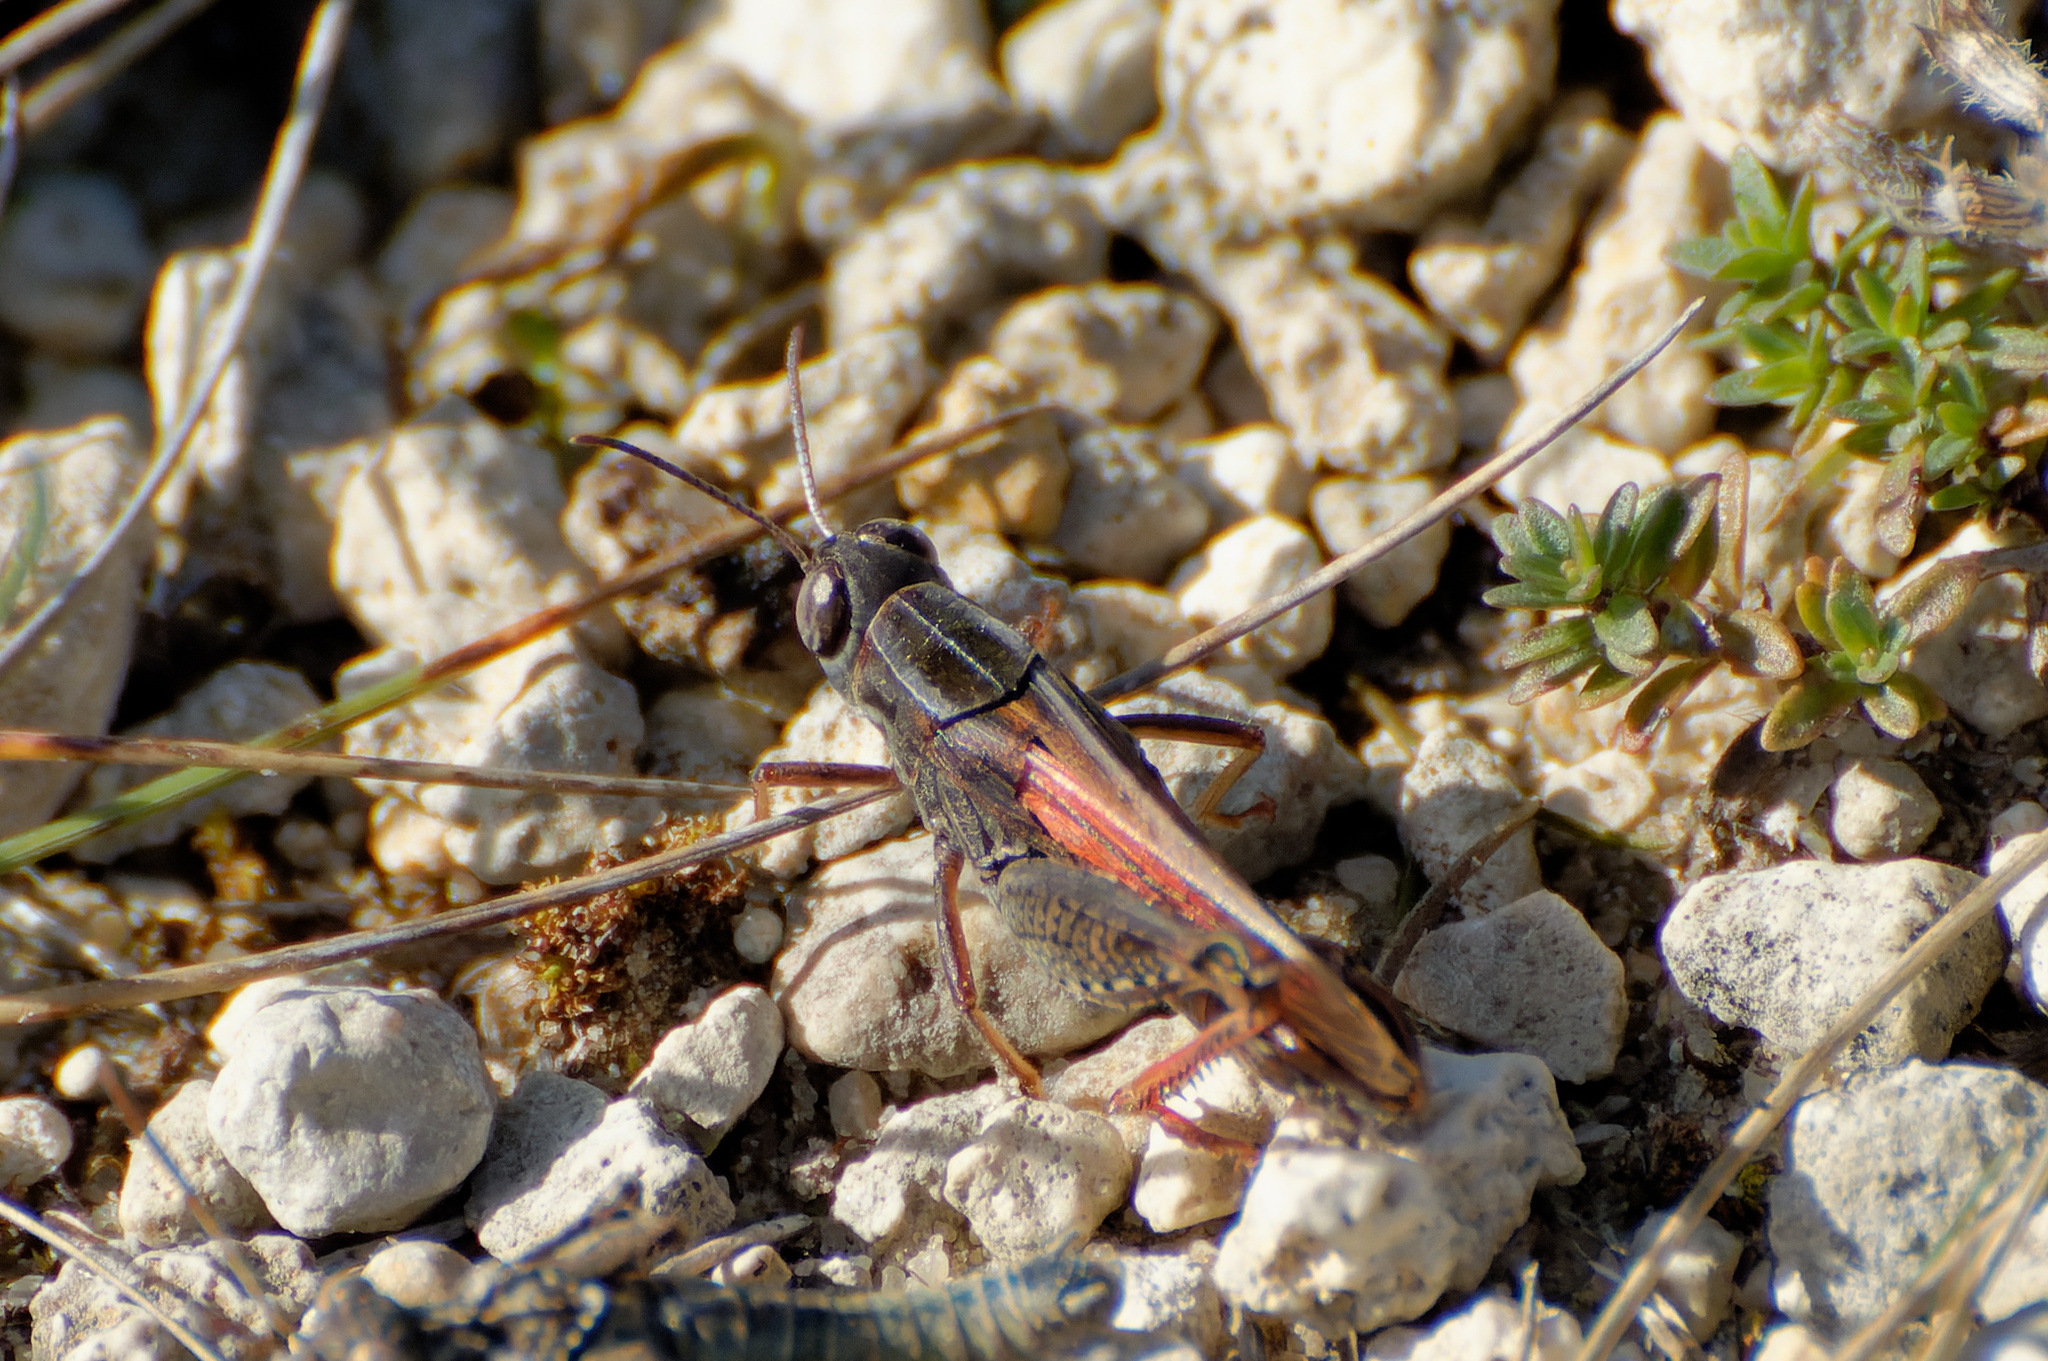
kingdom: Animalia
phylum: Arthropoda
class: Insecta
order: Orthoptera
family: Acrididae
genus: Calliptamus
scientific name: Calliptamus italicus
